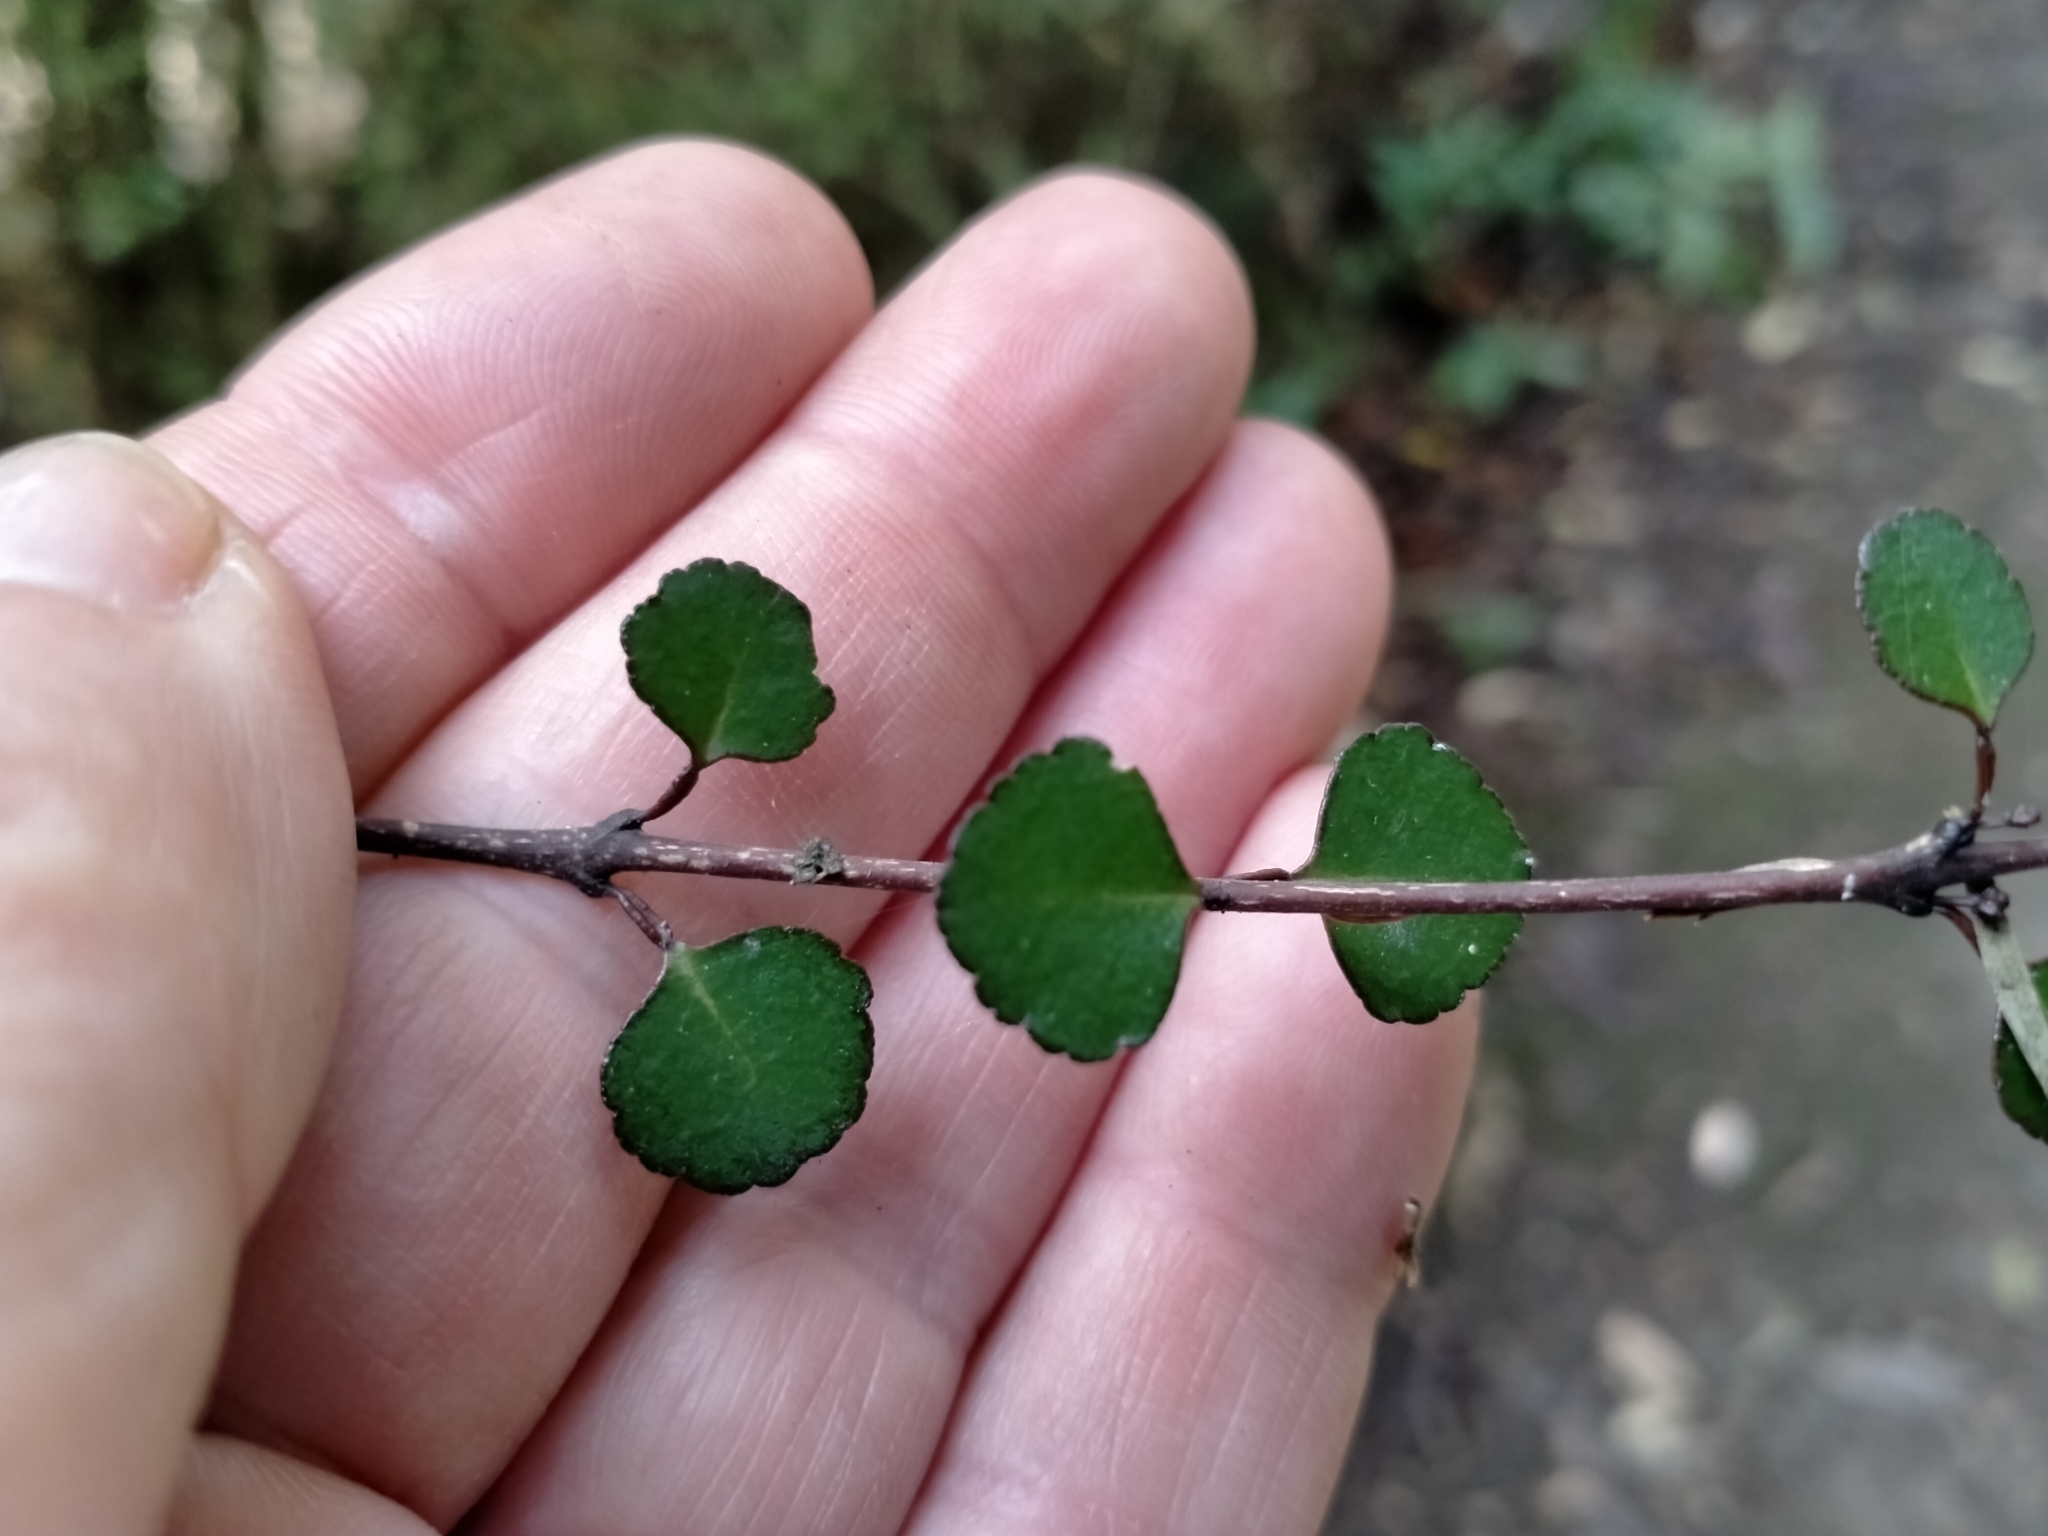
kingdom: Plantae
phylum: Tracheophyta
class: Magnoliopsida
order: Sapindales
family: Rutaceae
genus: Melicope
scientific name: Melicope simplex
